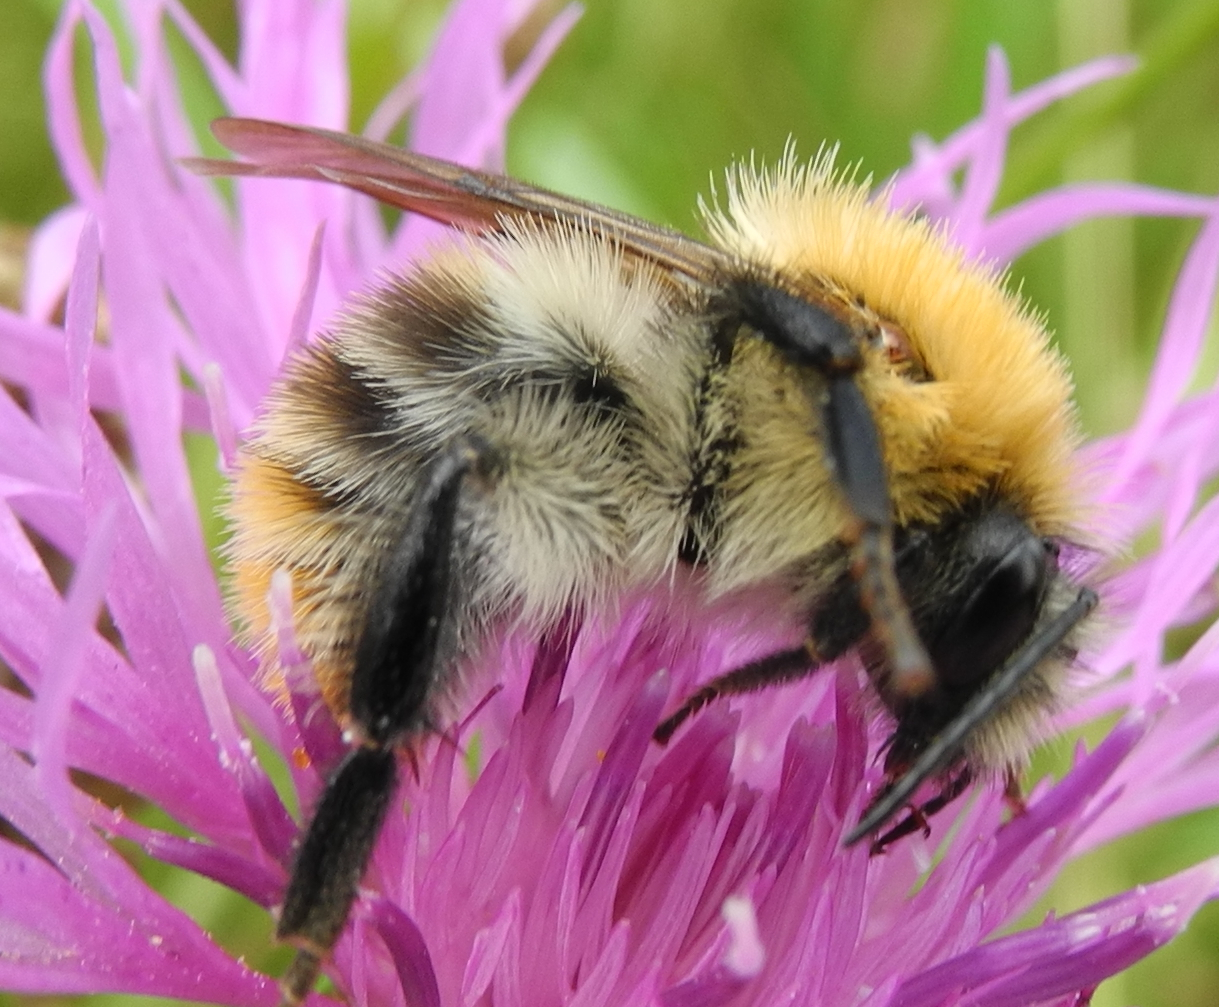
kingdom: Animalia
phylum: Arthropoda
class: Insecta
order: Hymenoptera
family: Apidae
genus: Bombus
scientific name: Bombus pascuorum
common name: Common carder bee
